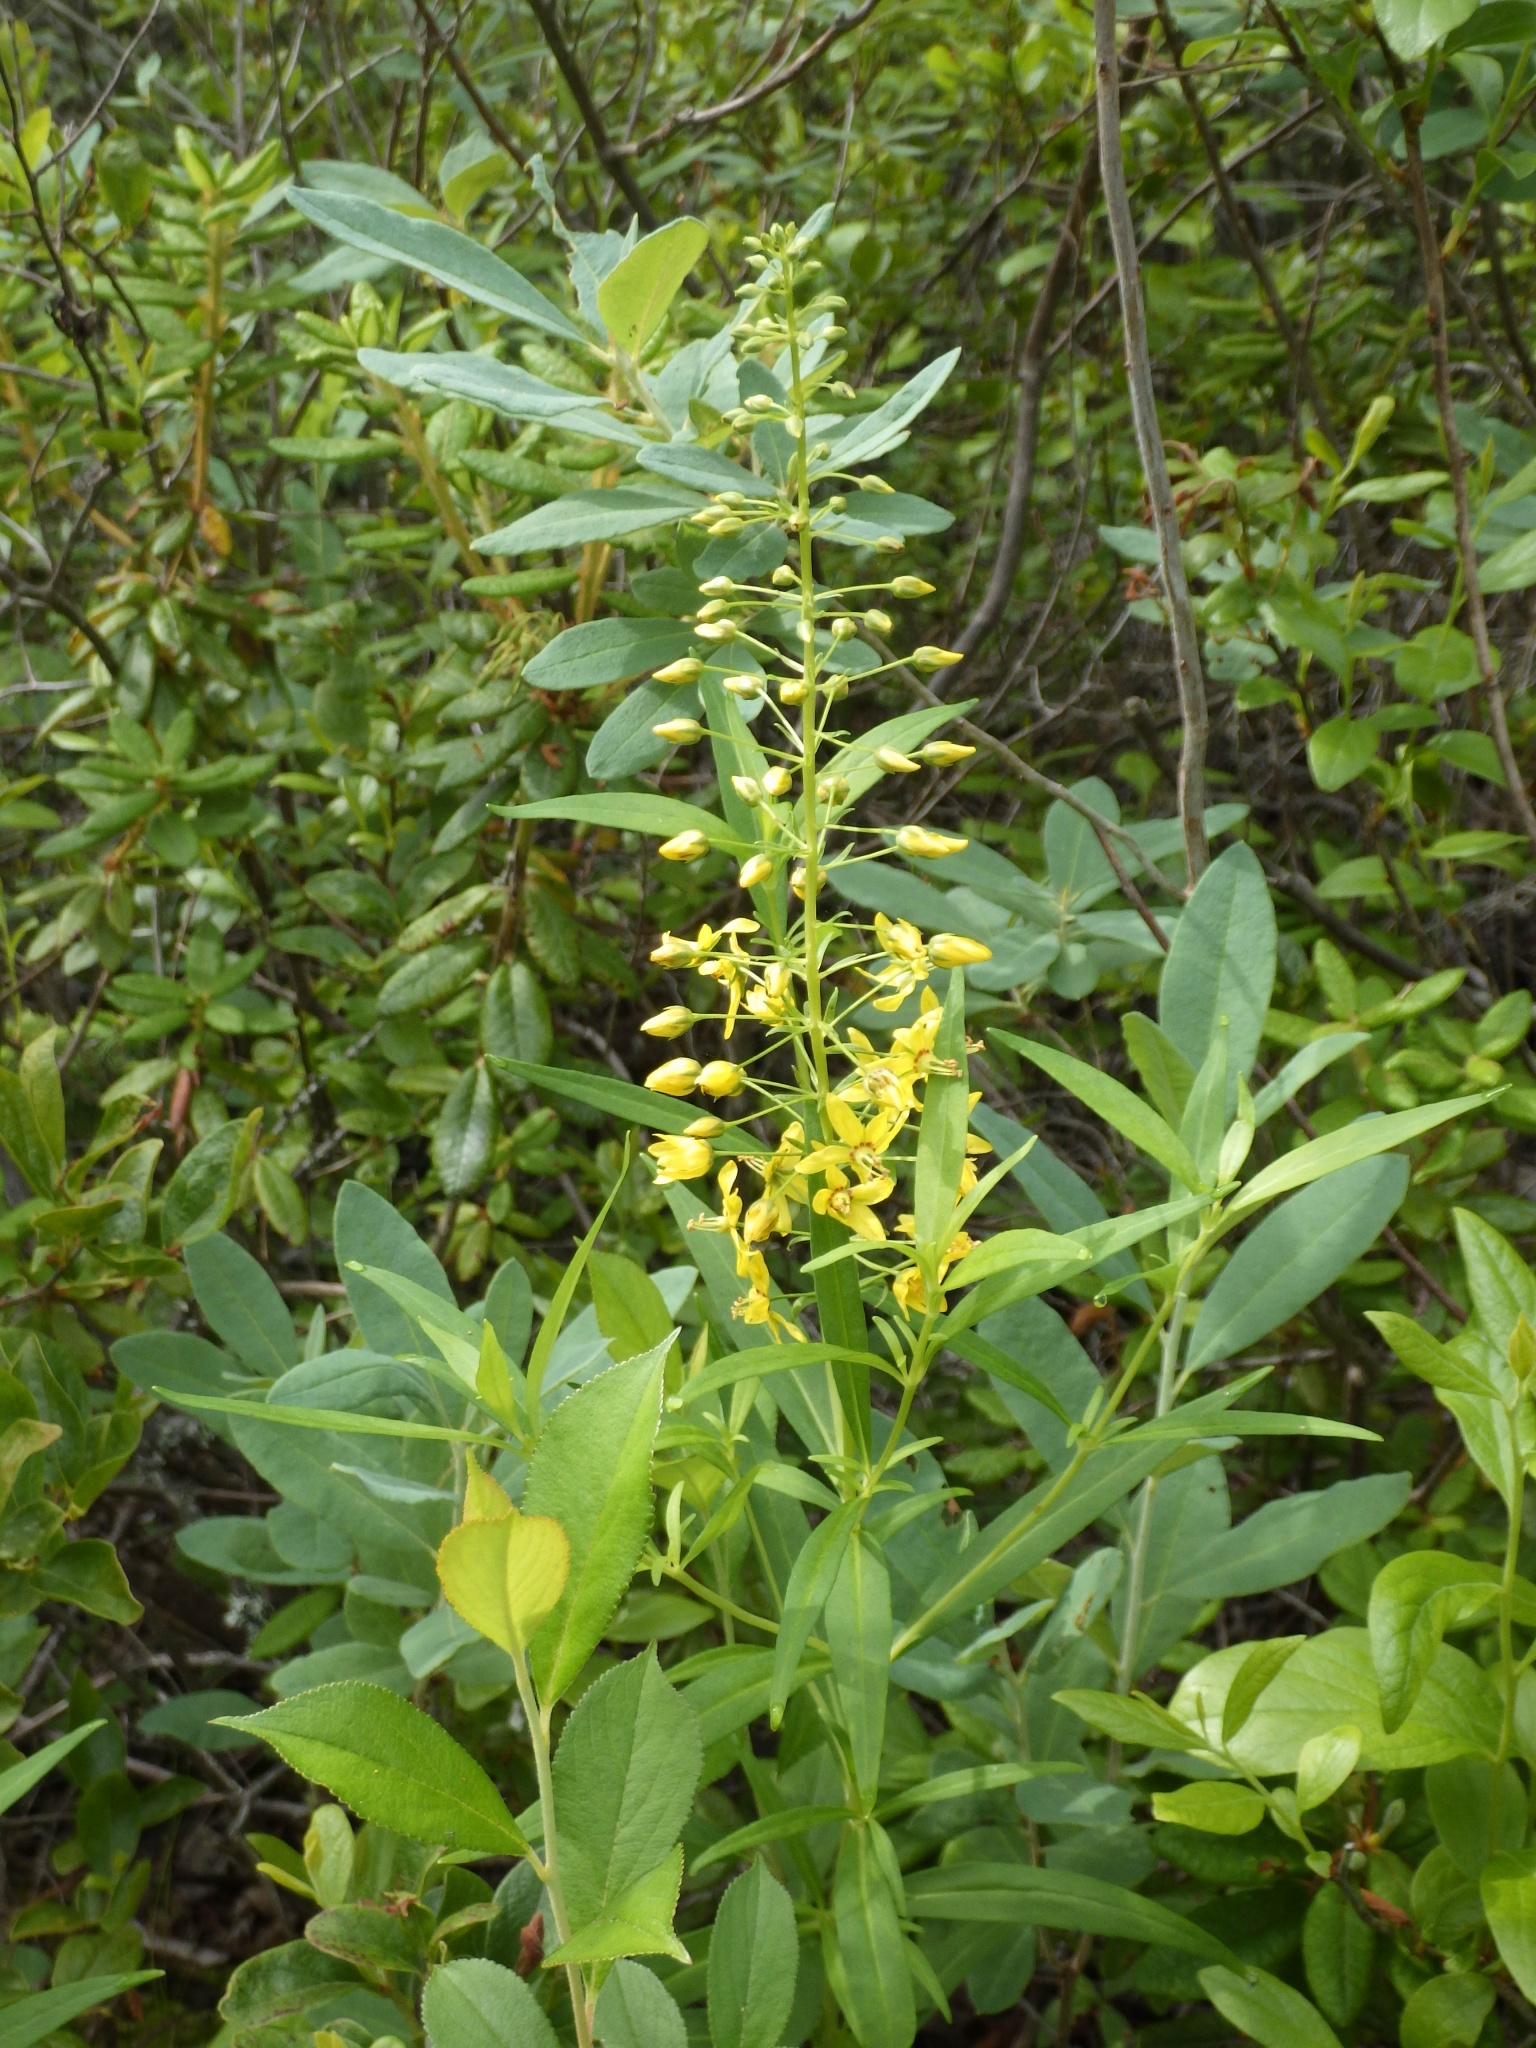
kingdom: Plantae
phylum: Tracheophyta
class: Magnoliopsida
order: Ericales
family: Primulaceae
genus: Lysimachia
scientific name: Lysimachia terrestris
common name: Lake loosestrife
